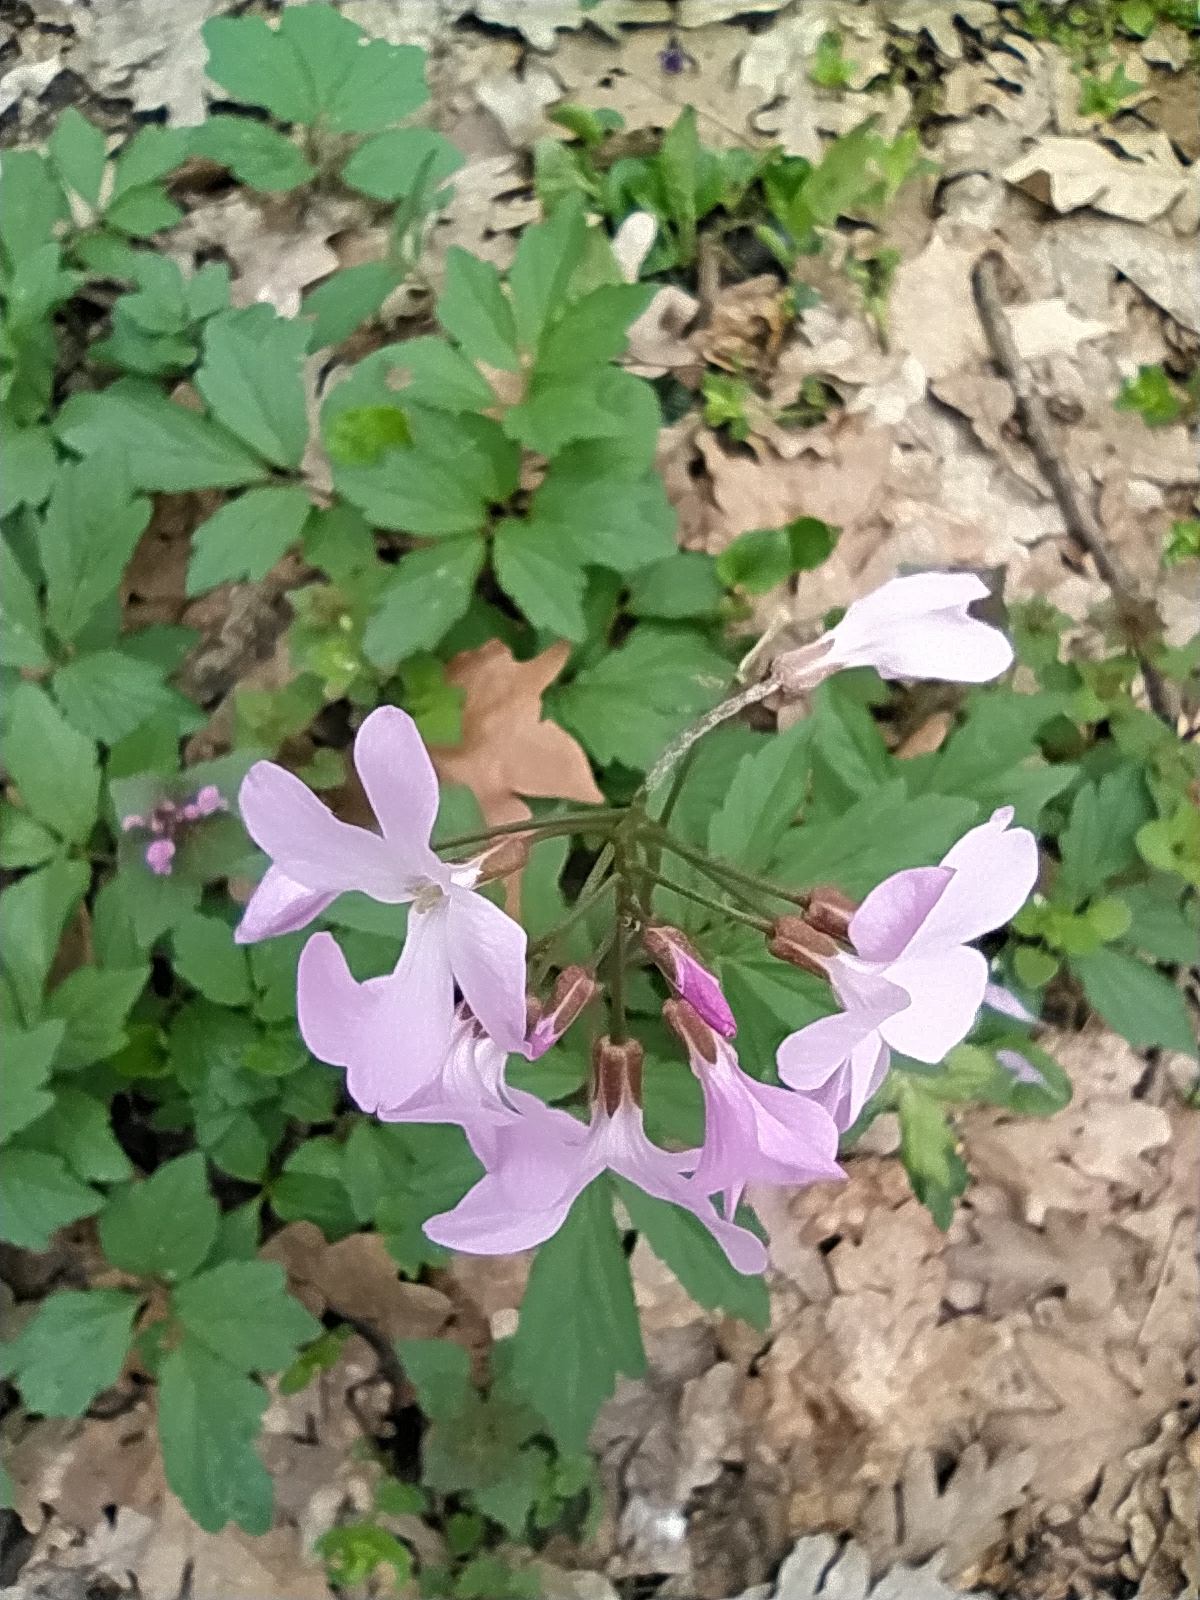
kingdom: Plantae
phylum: Tracheophyta
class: Magnoliopsida
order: Brassicales
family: Brassicaceae
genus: Cardamine
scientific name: Cardamine quinquefolia
